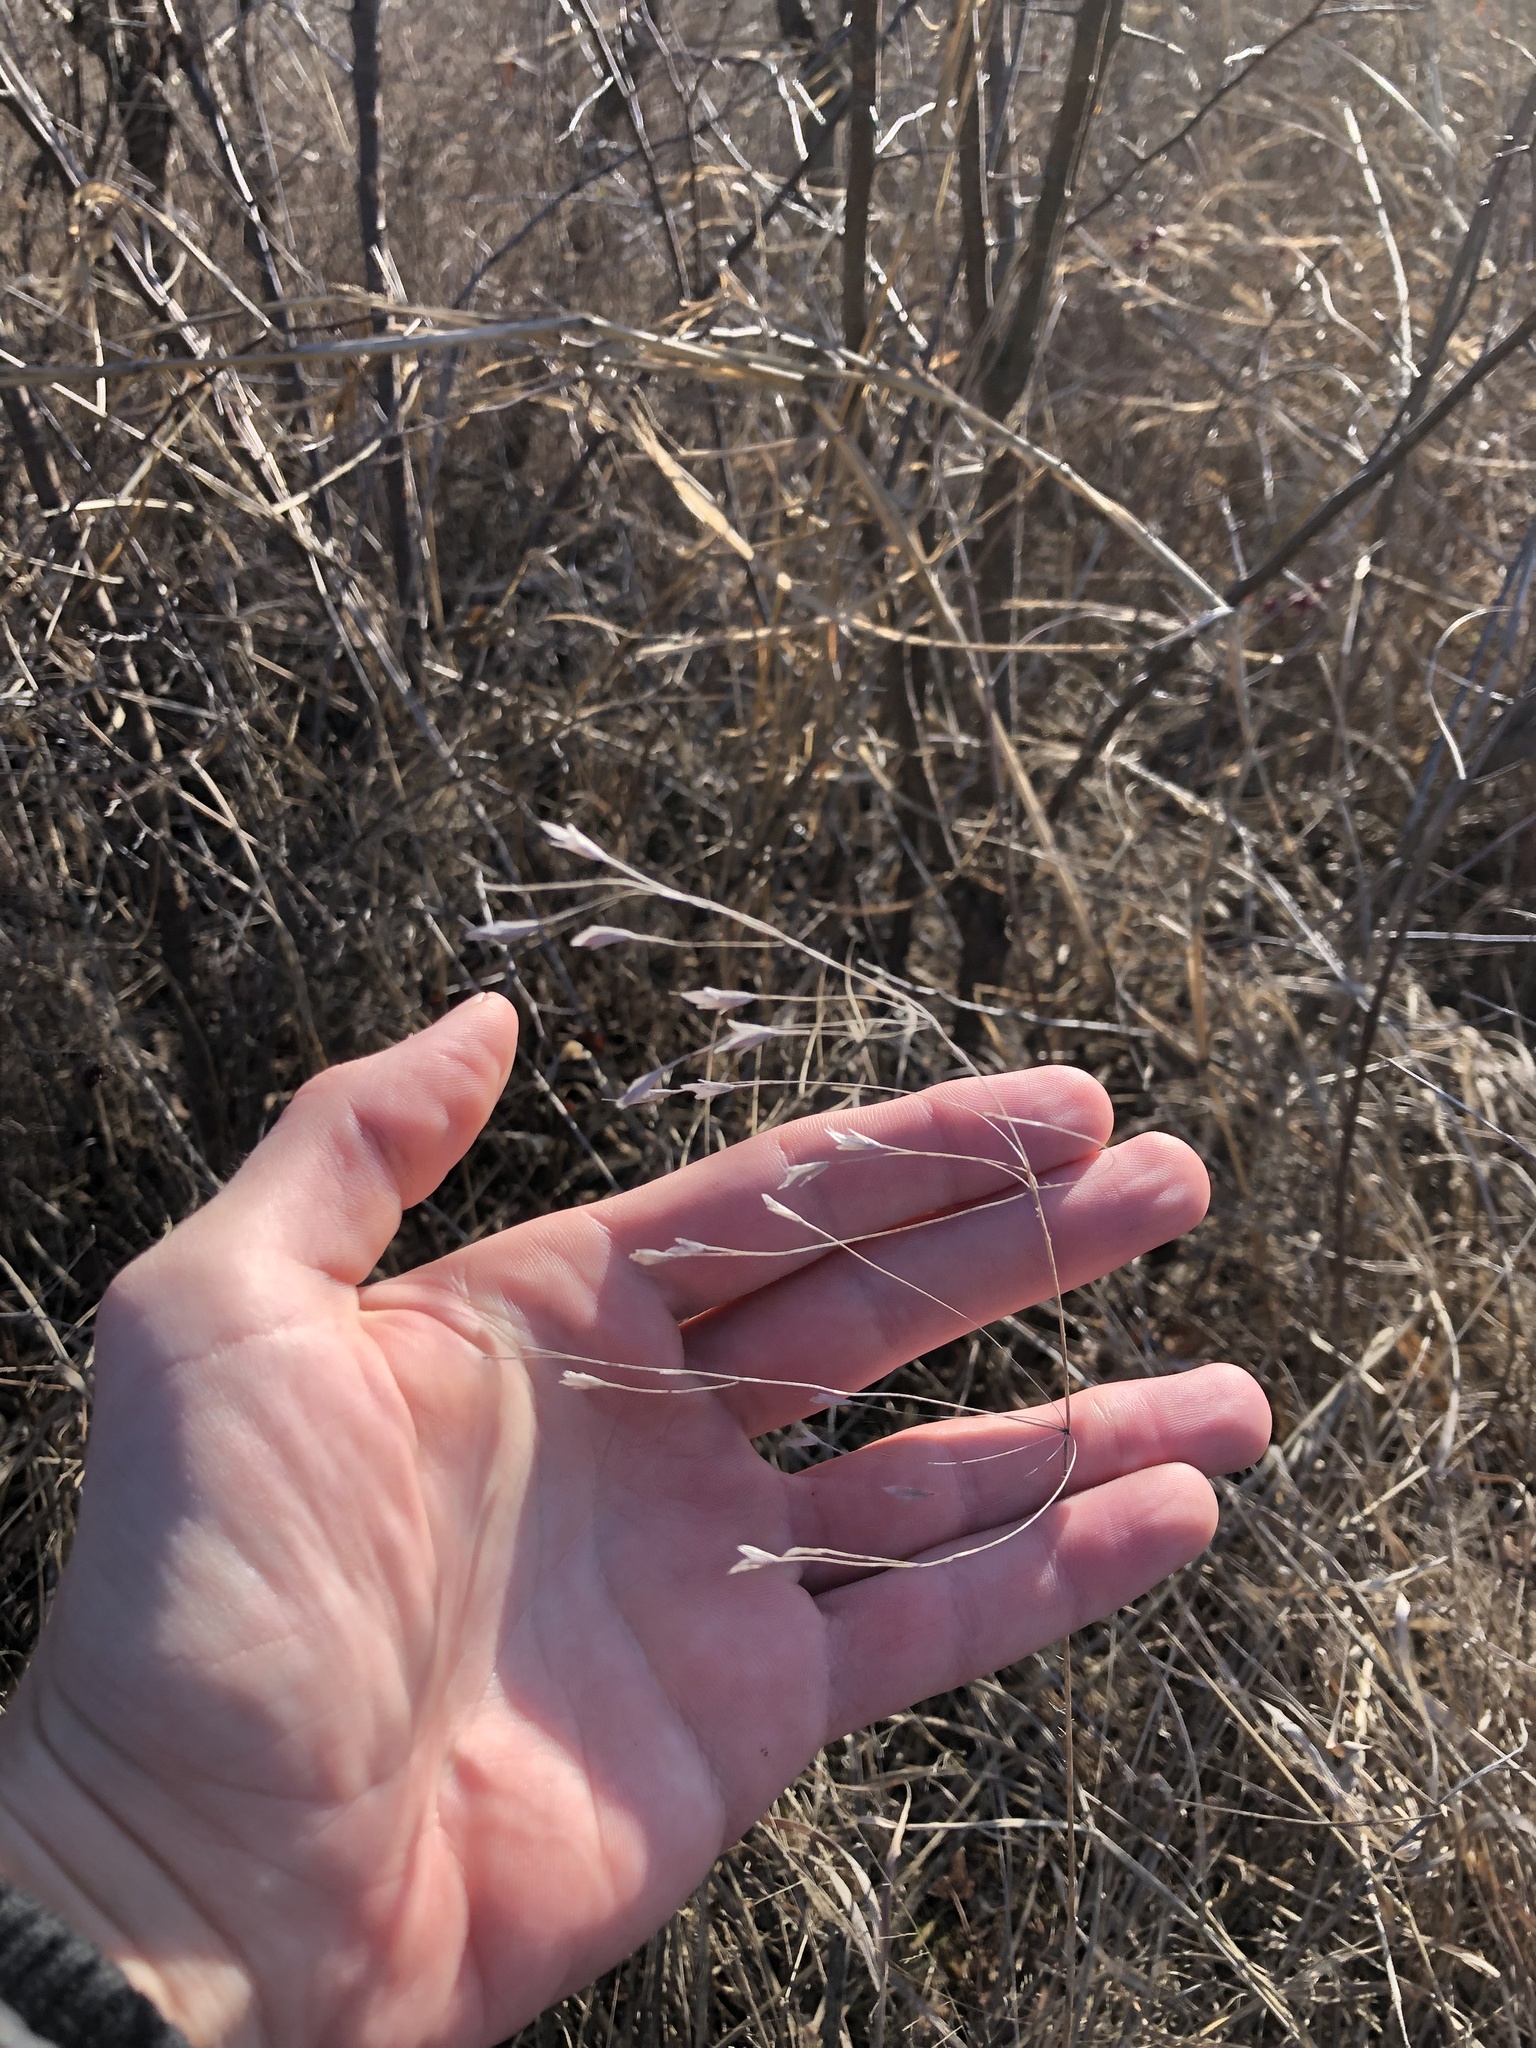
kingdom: Plantae
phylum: Tracheophyta
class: Liliopsida
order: Poales
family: Poaceae
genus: Bromus
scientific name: Bromus japonicus
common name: Japanese brome
